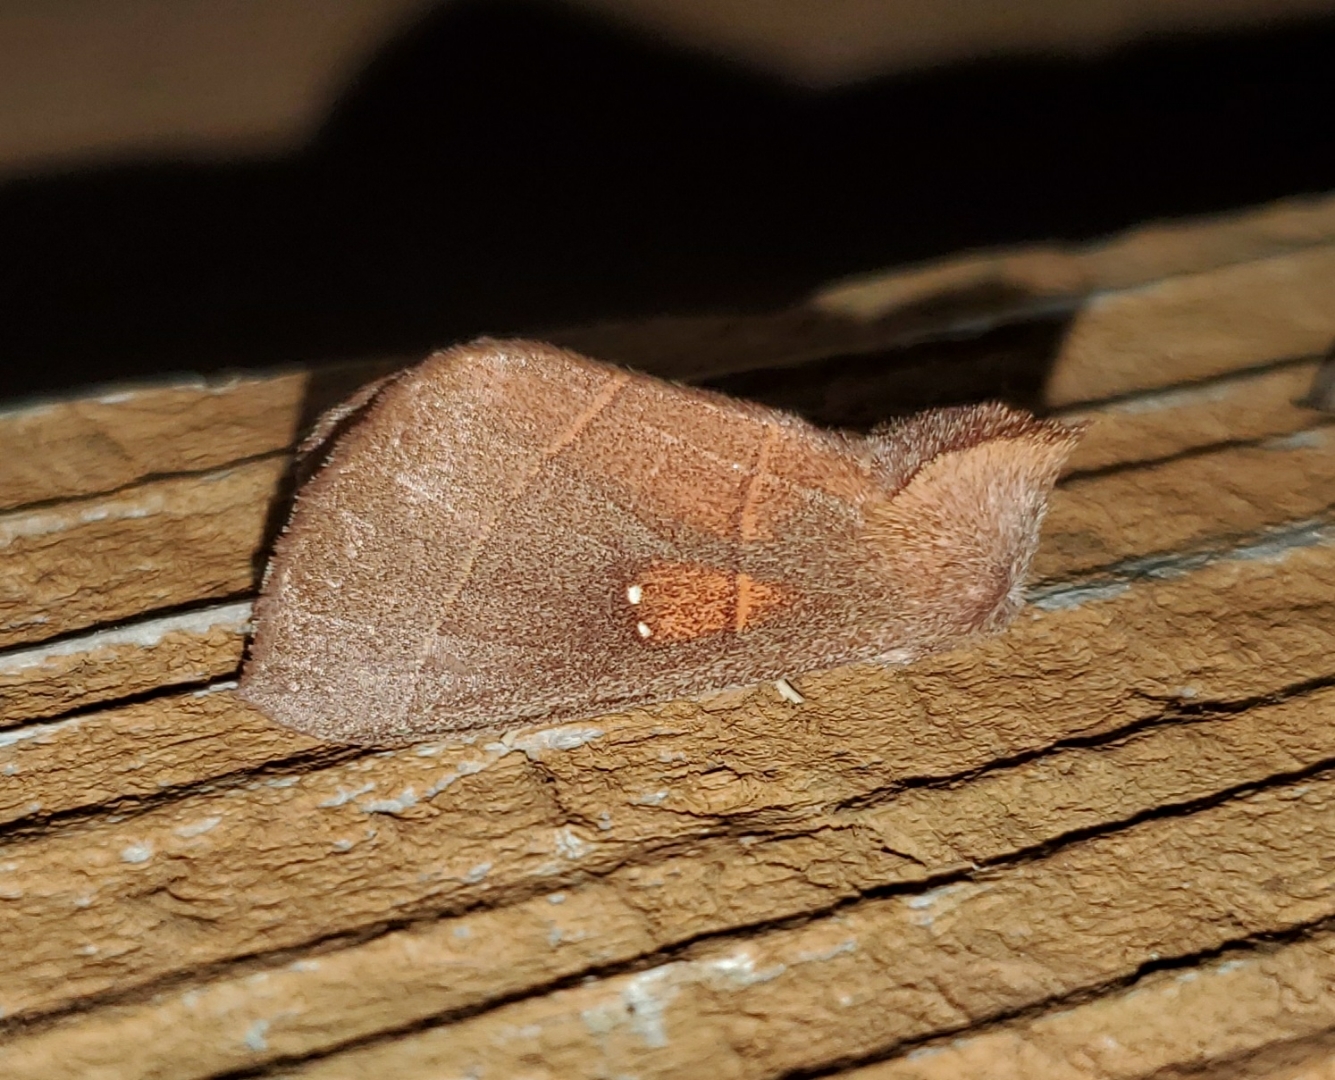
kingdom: Animalia
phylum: Arthropoda
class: Insecta
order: Lepidoptera
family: Notodontidae
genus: Nadata
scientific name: Nadata gibbosa
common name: White-dotted prominent
